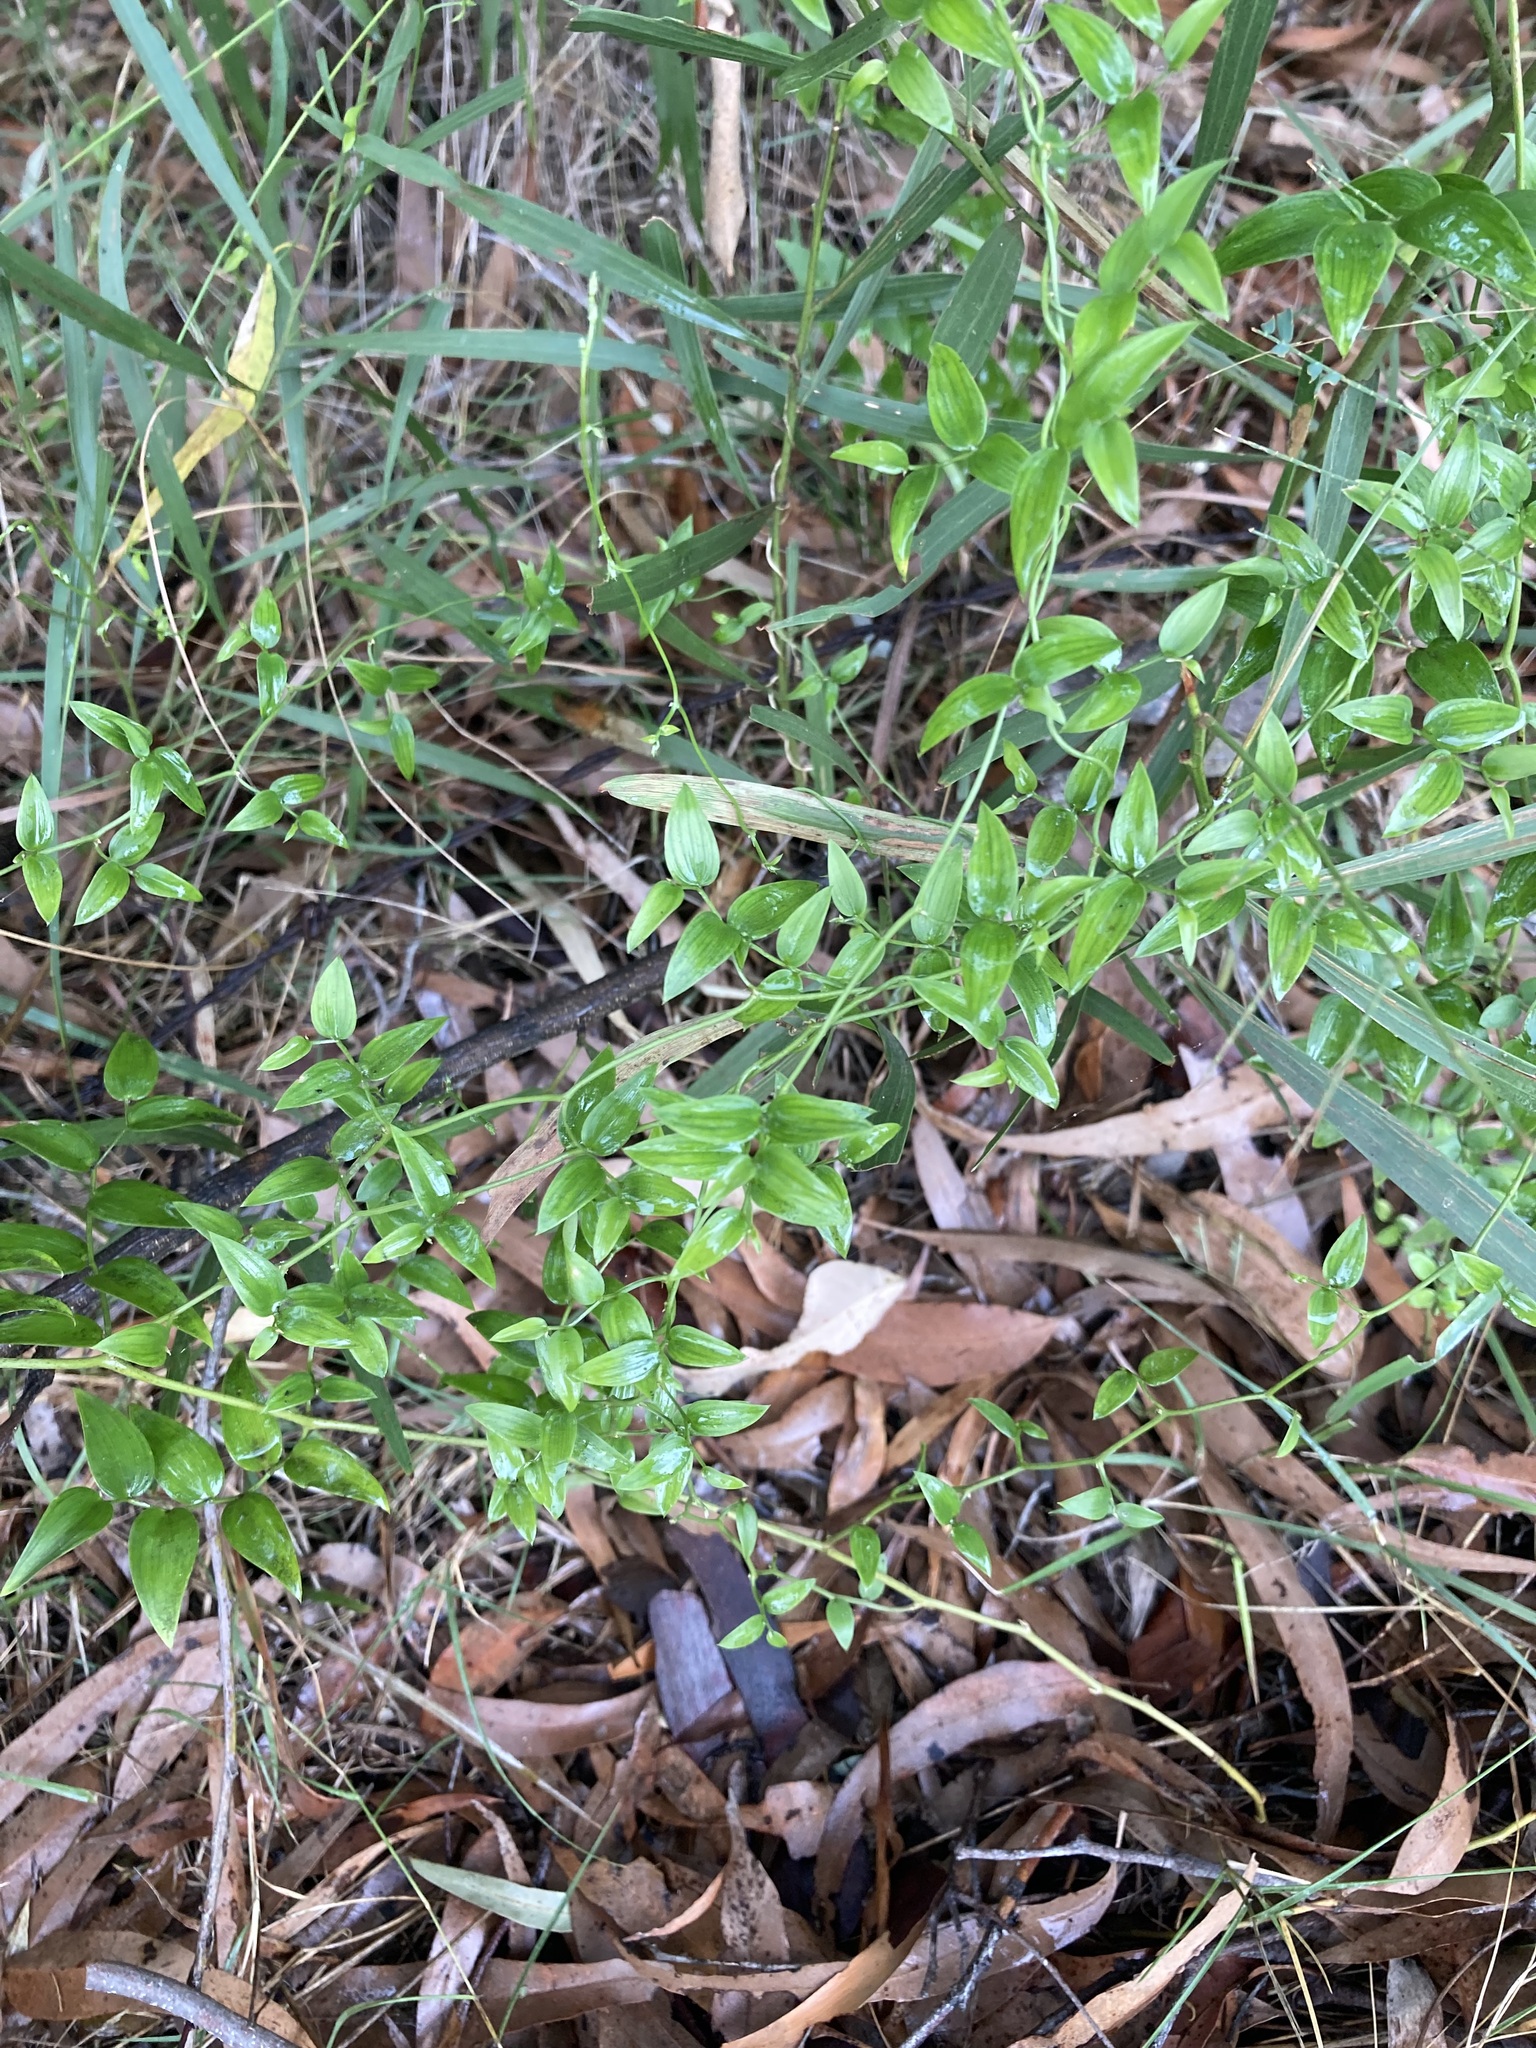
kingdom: Plantae
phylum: Tracheophyta
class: Liliopsida
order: Asparagales
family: Asparagaceae
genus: Asparagus
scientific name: Asparagus asparagoides
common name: African asparagus fern
